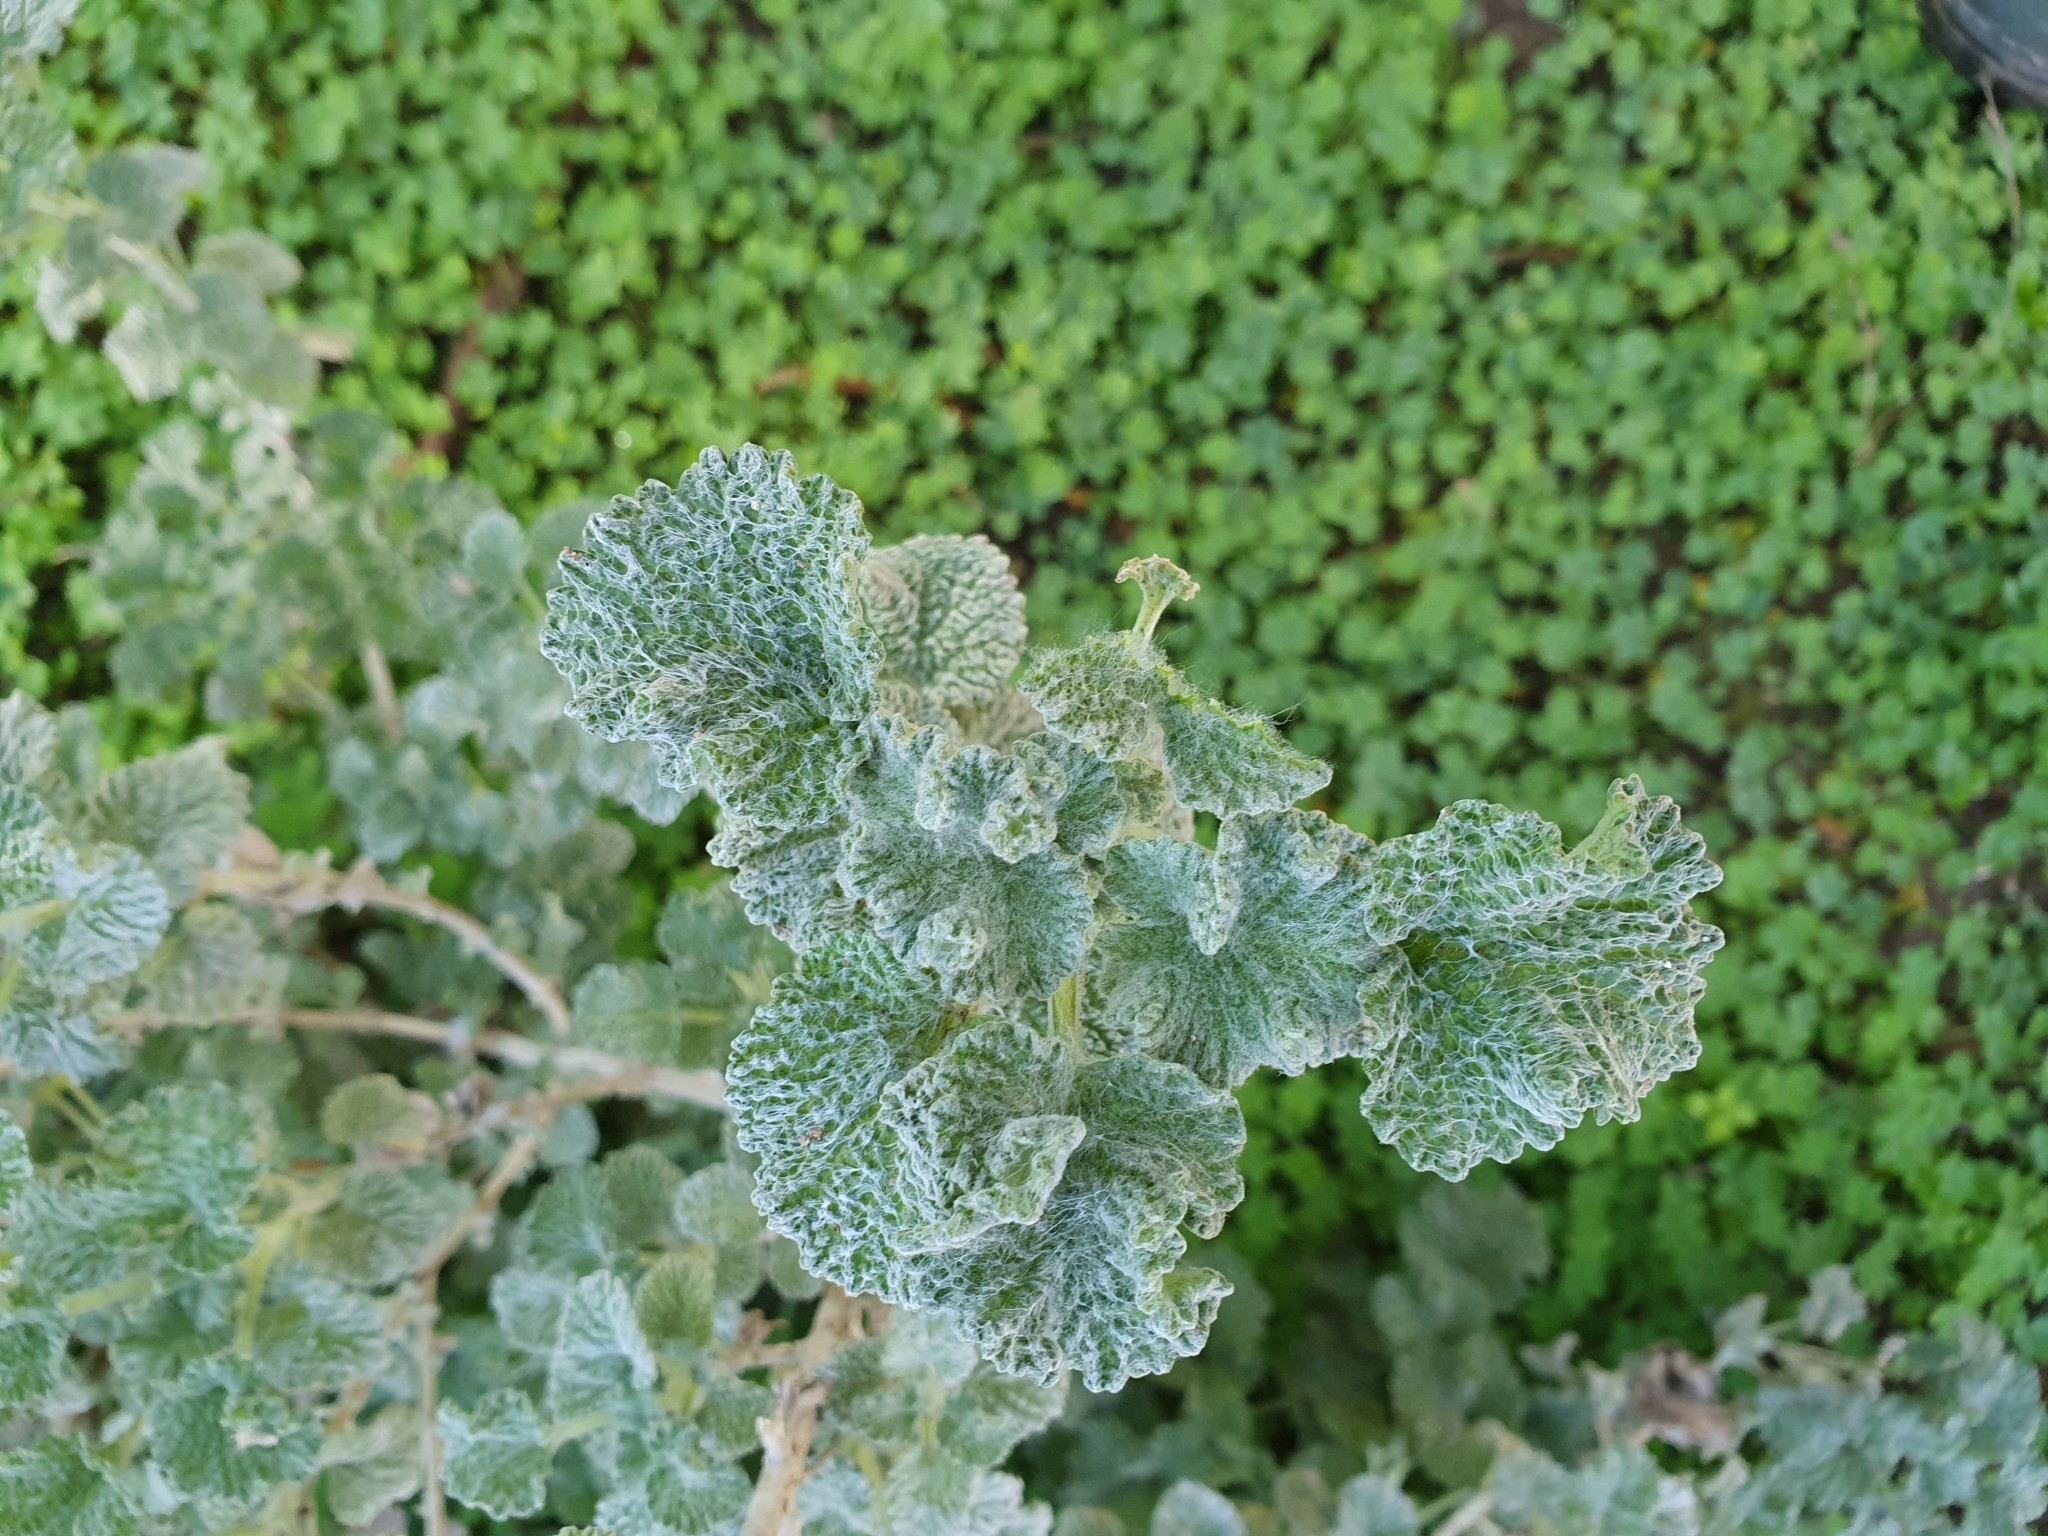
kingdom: Plantae
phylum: Tracheophyta
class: Magnoliopsida
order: Lamiales
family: Lamiaceae
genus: Marrubium
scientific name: Marrubium vulgare
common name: Horehound
